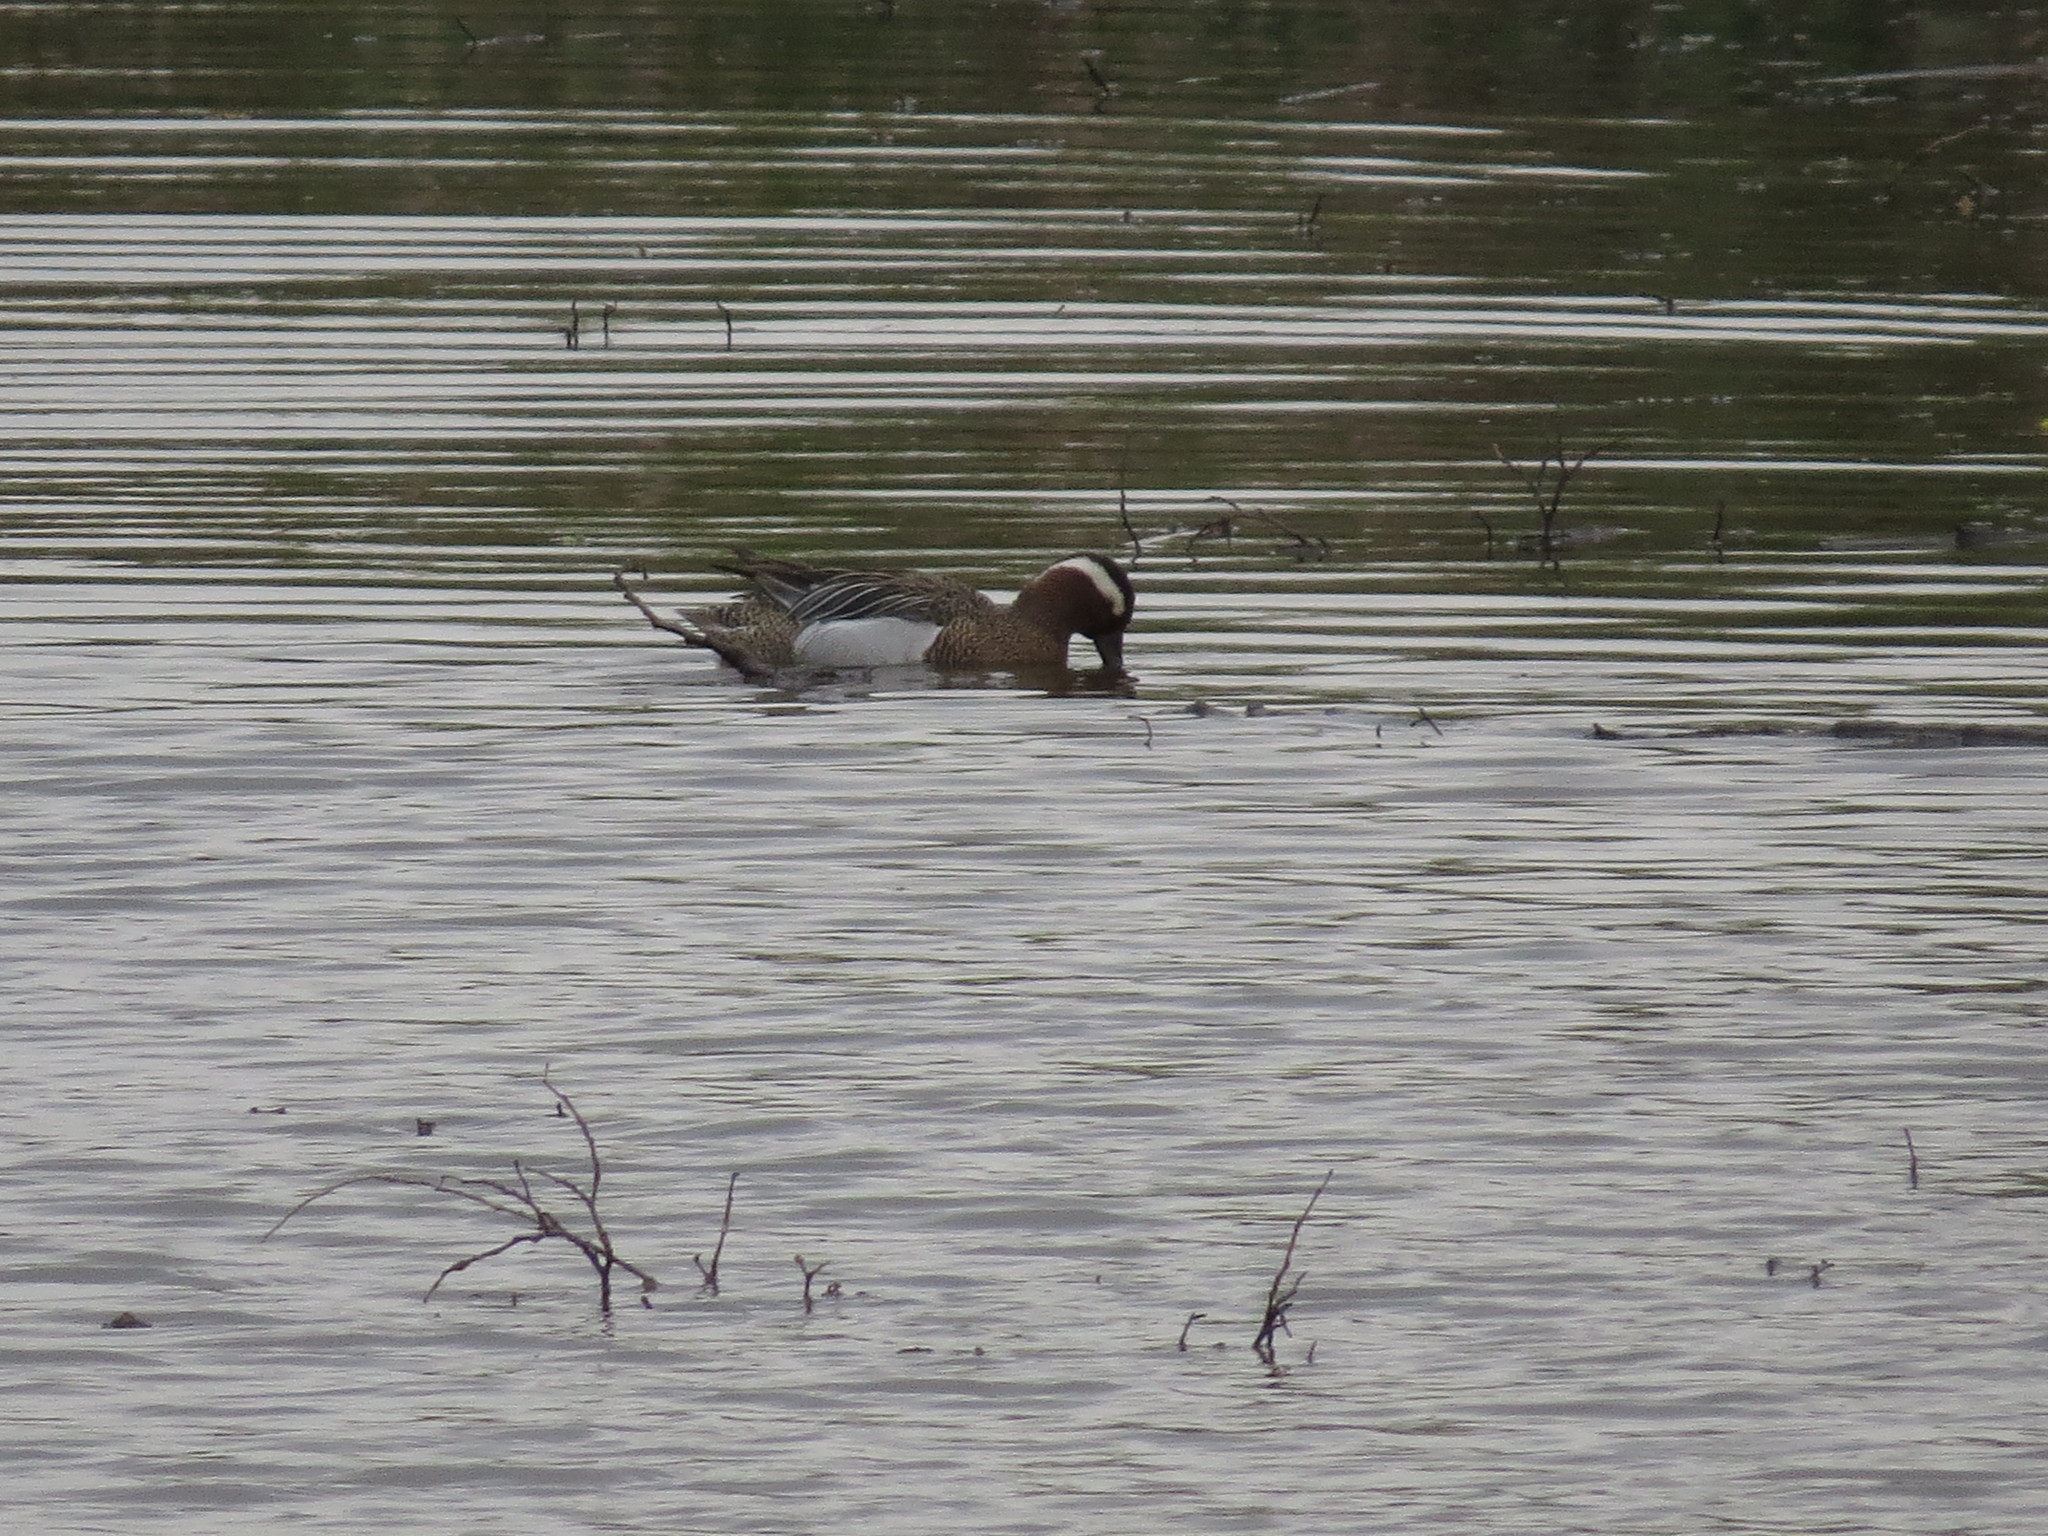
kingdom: Animalia
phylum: Chordata
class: Aves
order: Anseriformes
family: Anatidae
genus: Spatula
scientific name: Spatula querquedula
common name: Garganey
